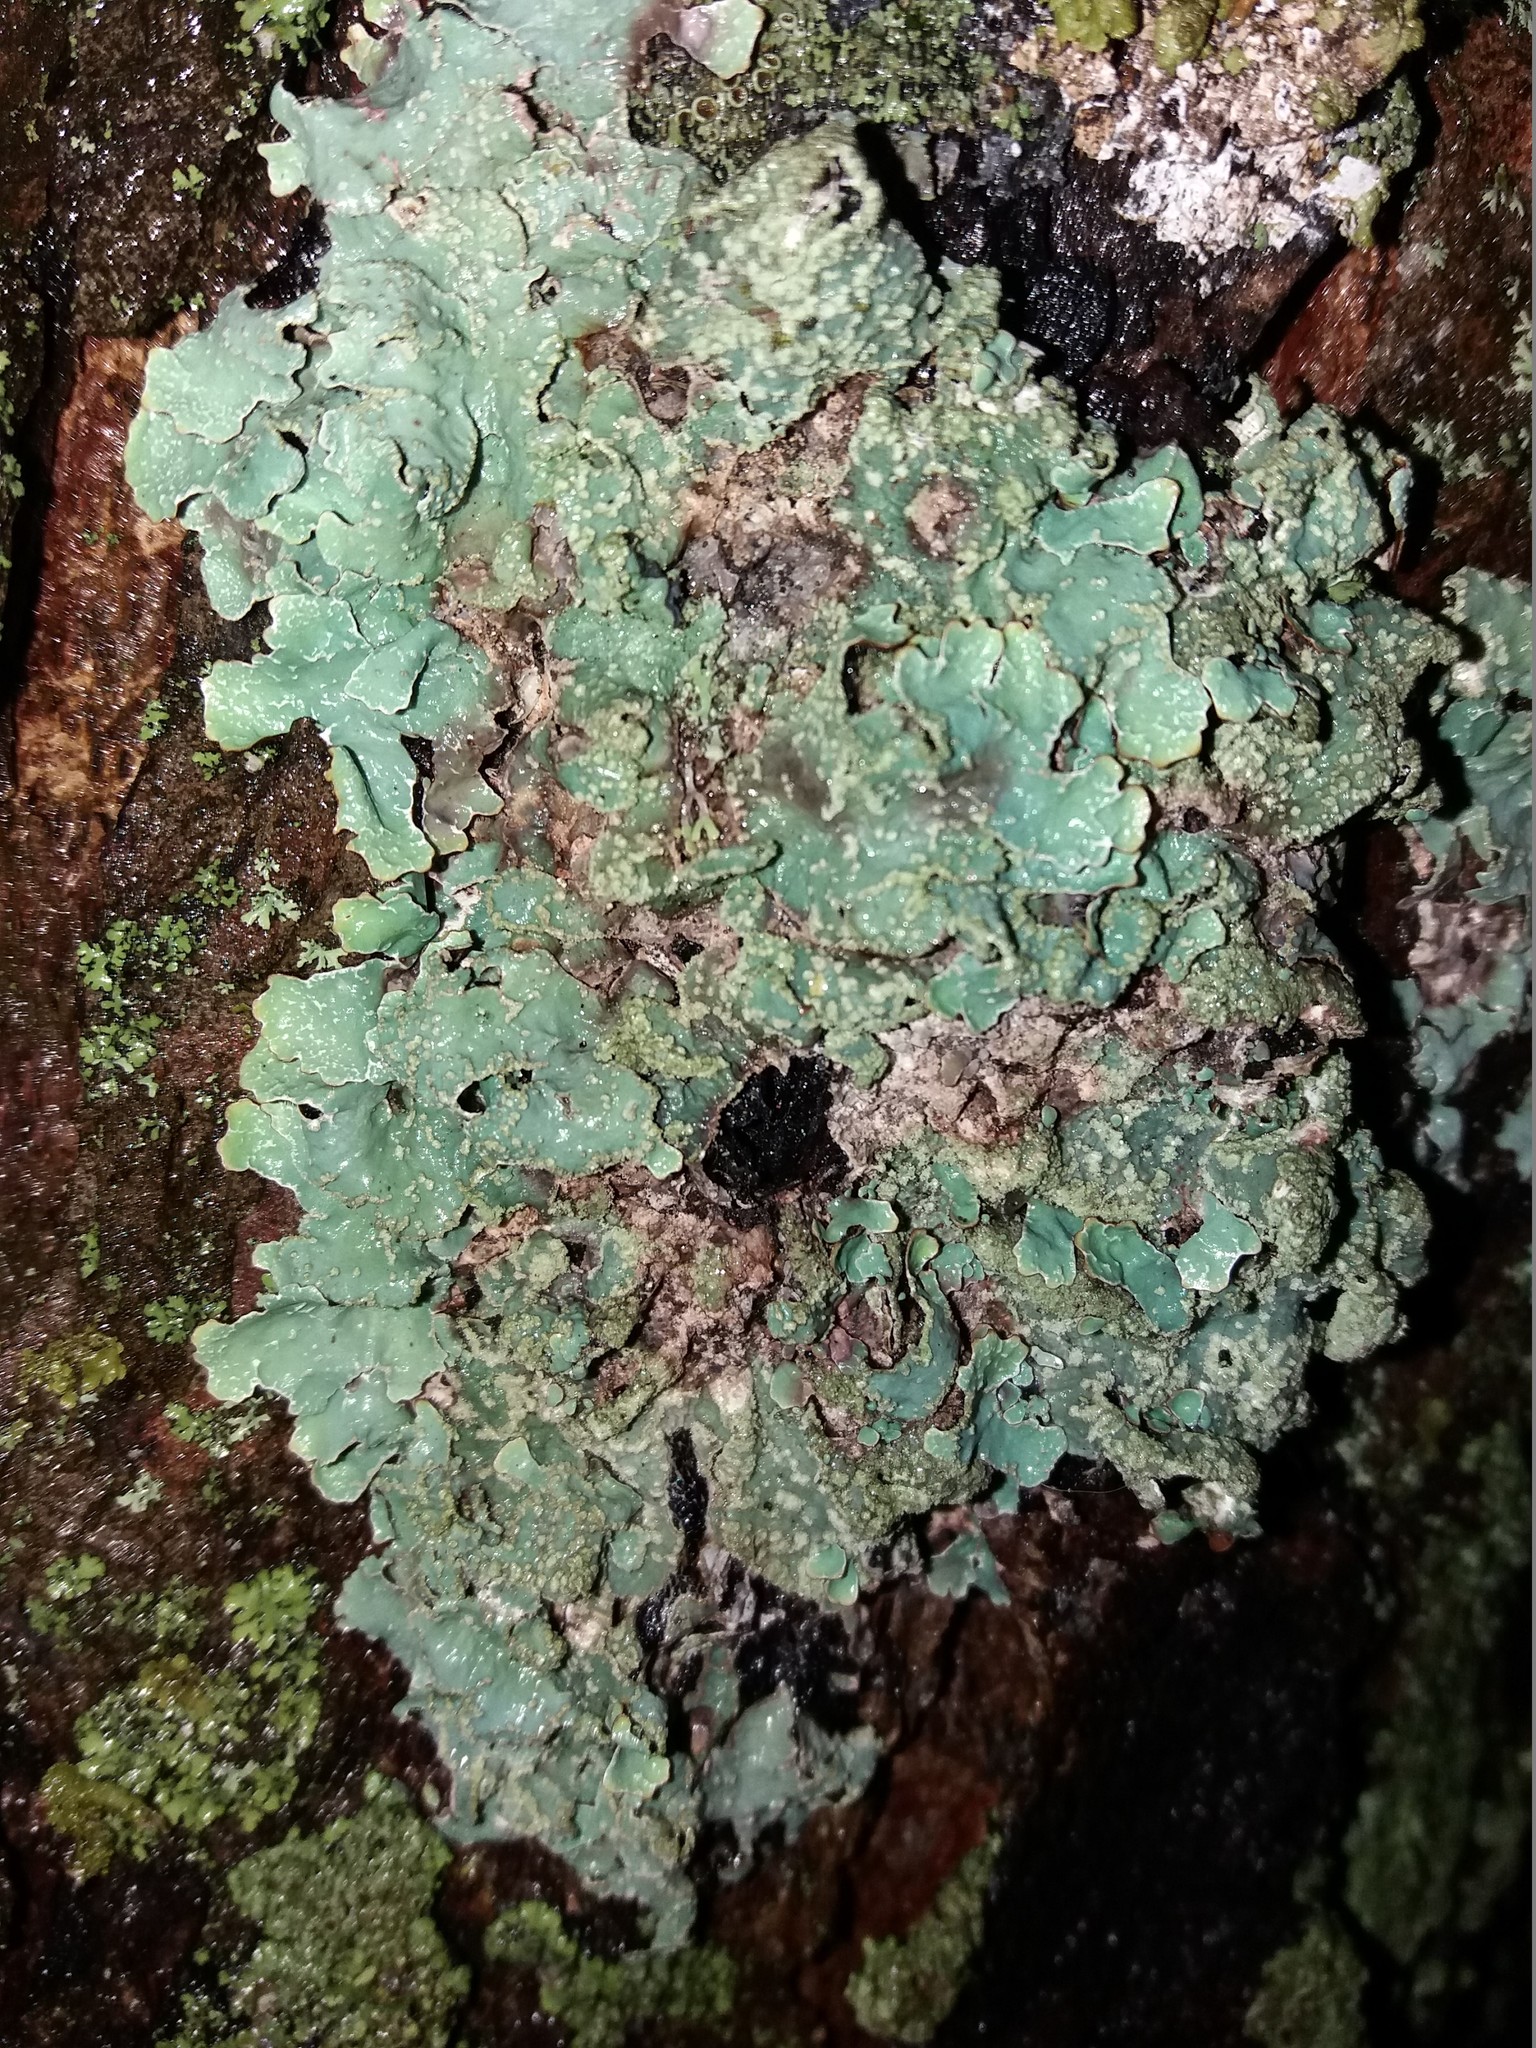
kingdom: Fungi
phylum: Ascomycota
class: Lecanoromycetes
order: Lecanorales
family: Parmeliaceae
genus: Parmelia
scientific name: Parmelia sulcata
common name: Netted shield lichen
